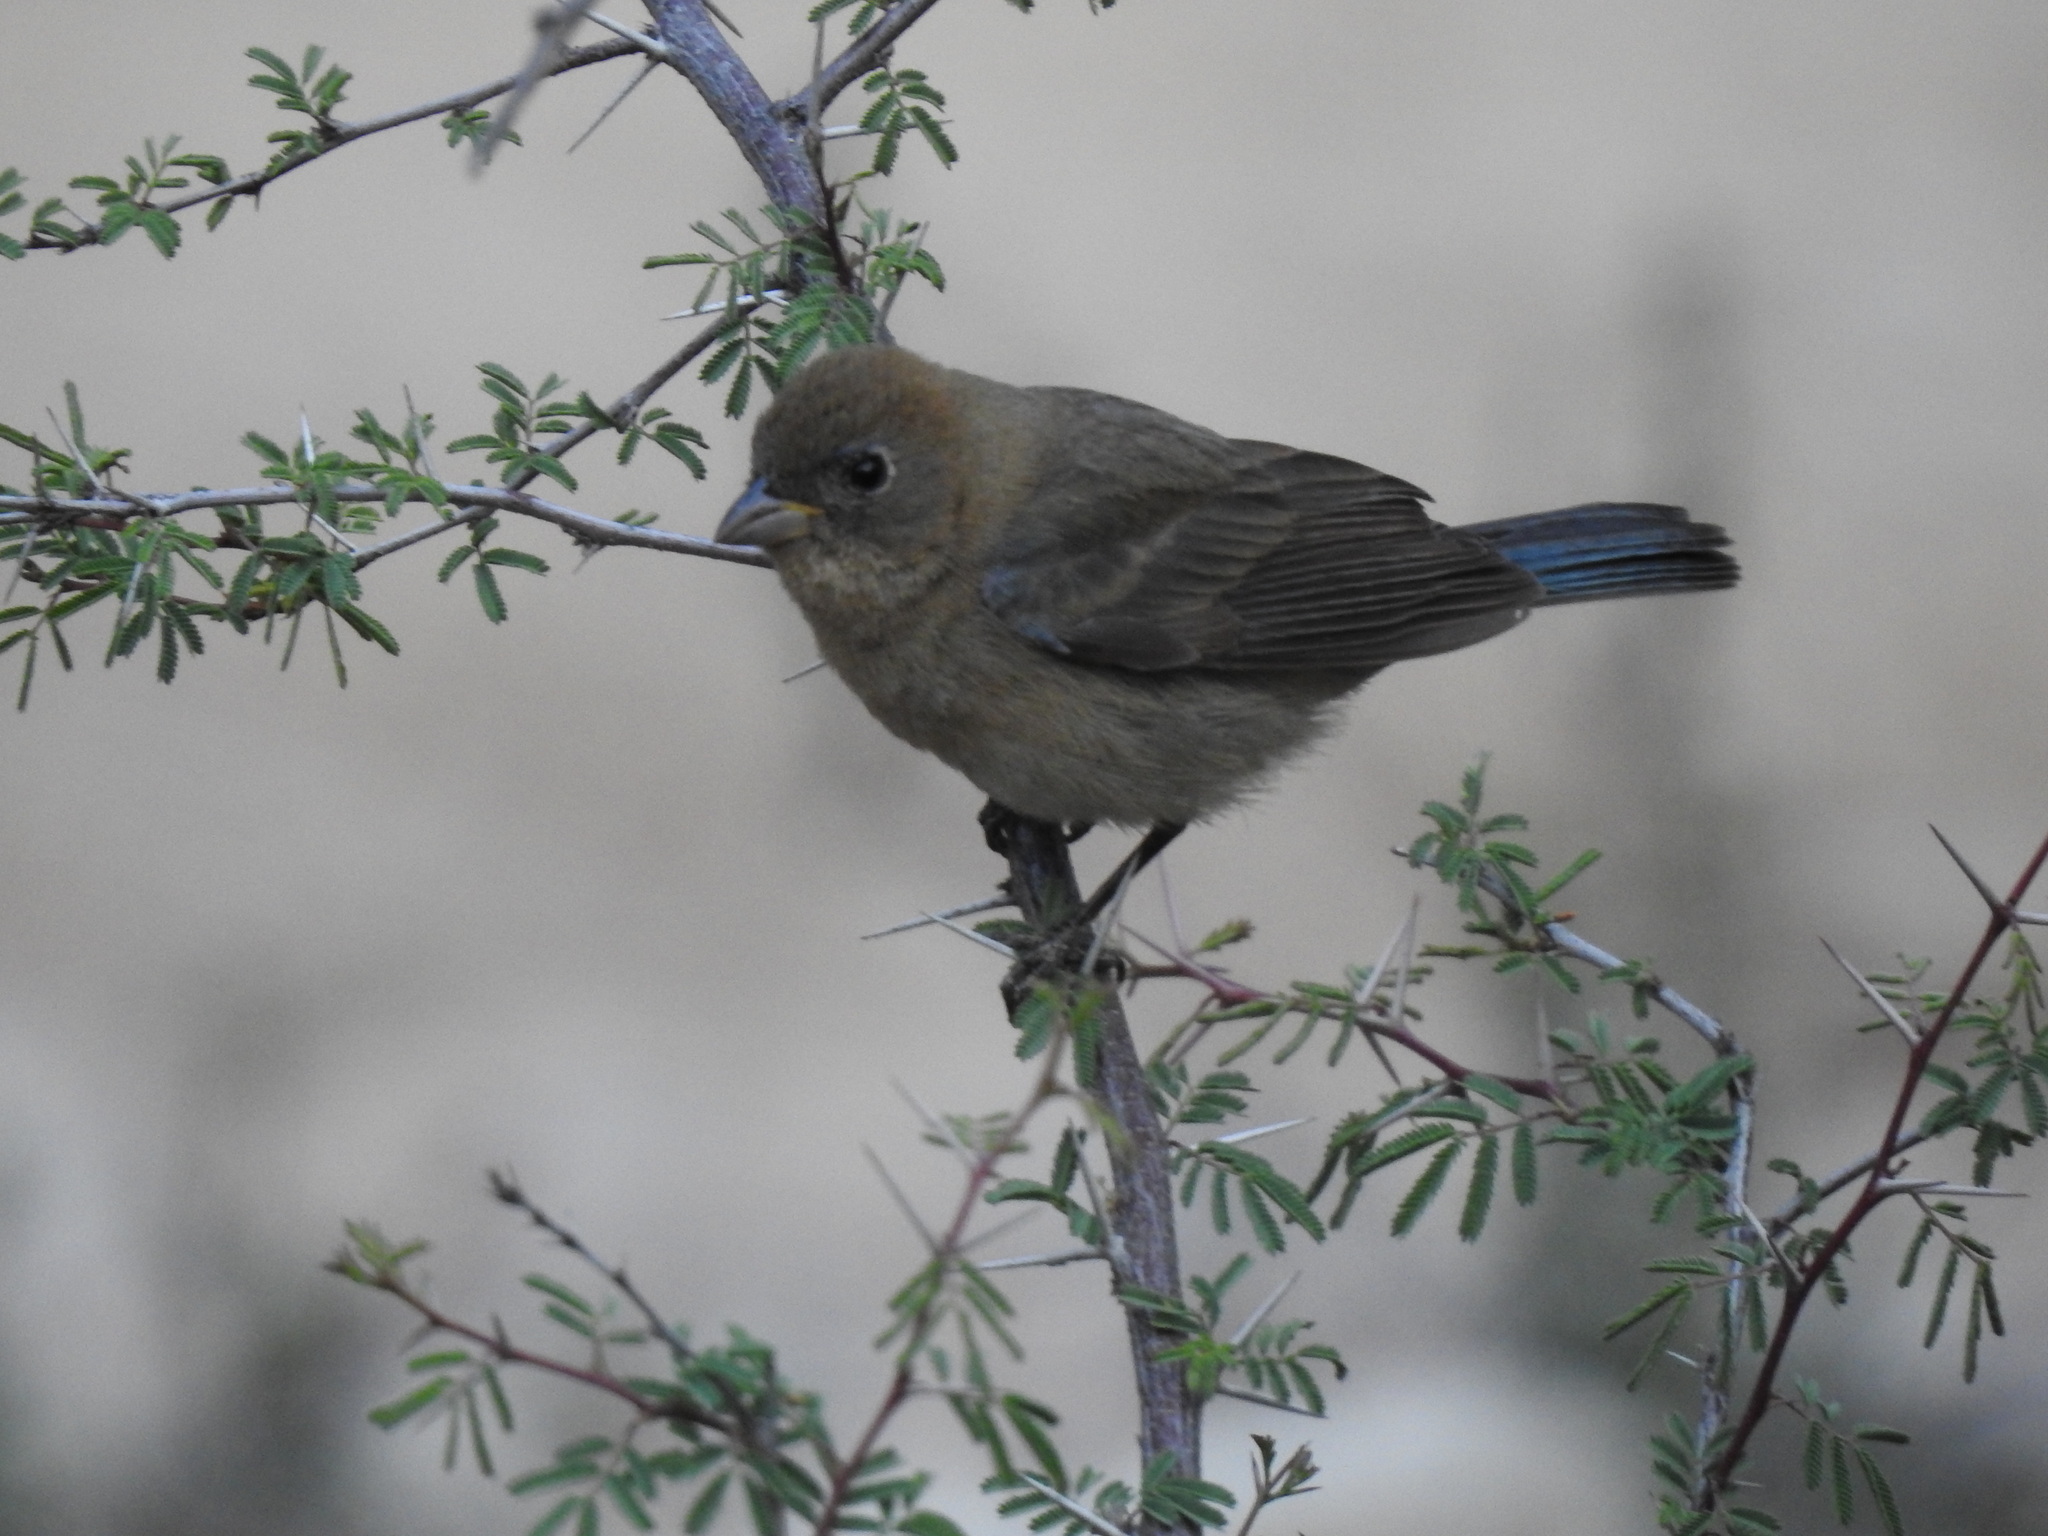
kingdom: Animalia
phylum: Chordata
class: Aves
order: Passeriformes
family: Cardinalidae
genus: Passerina
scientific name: Passerina cyanea
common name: Indigo bunting
